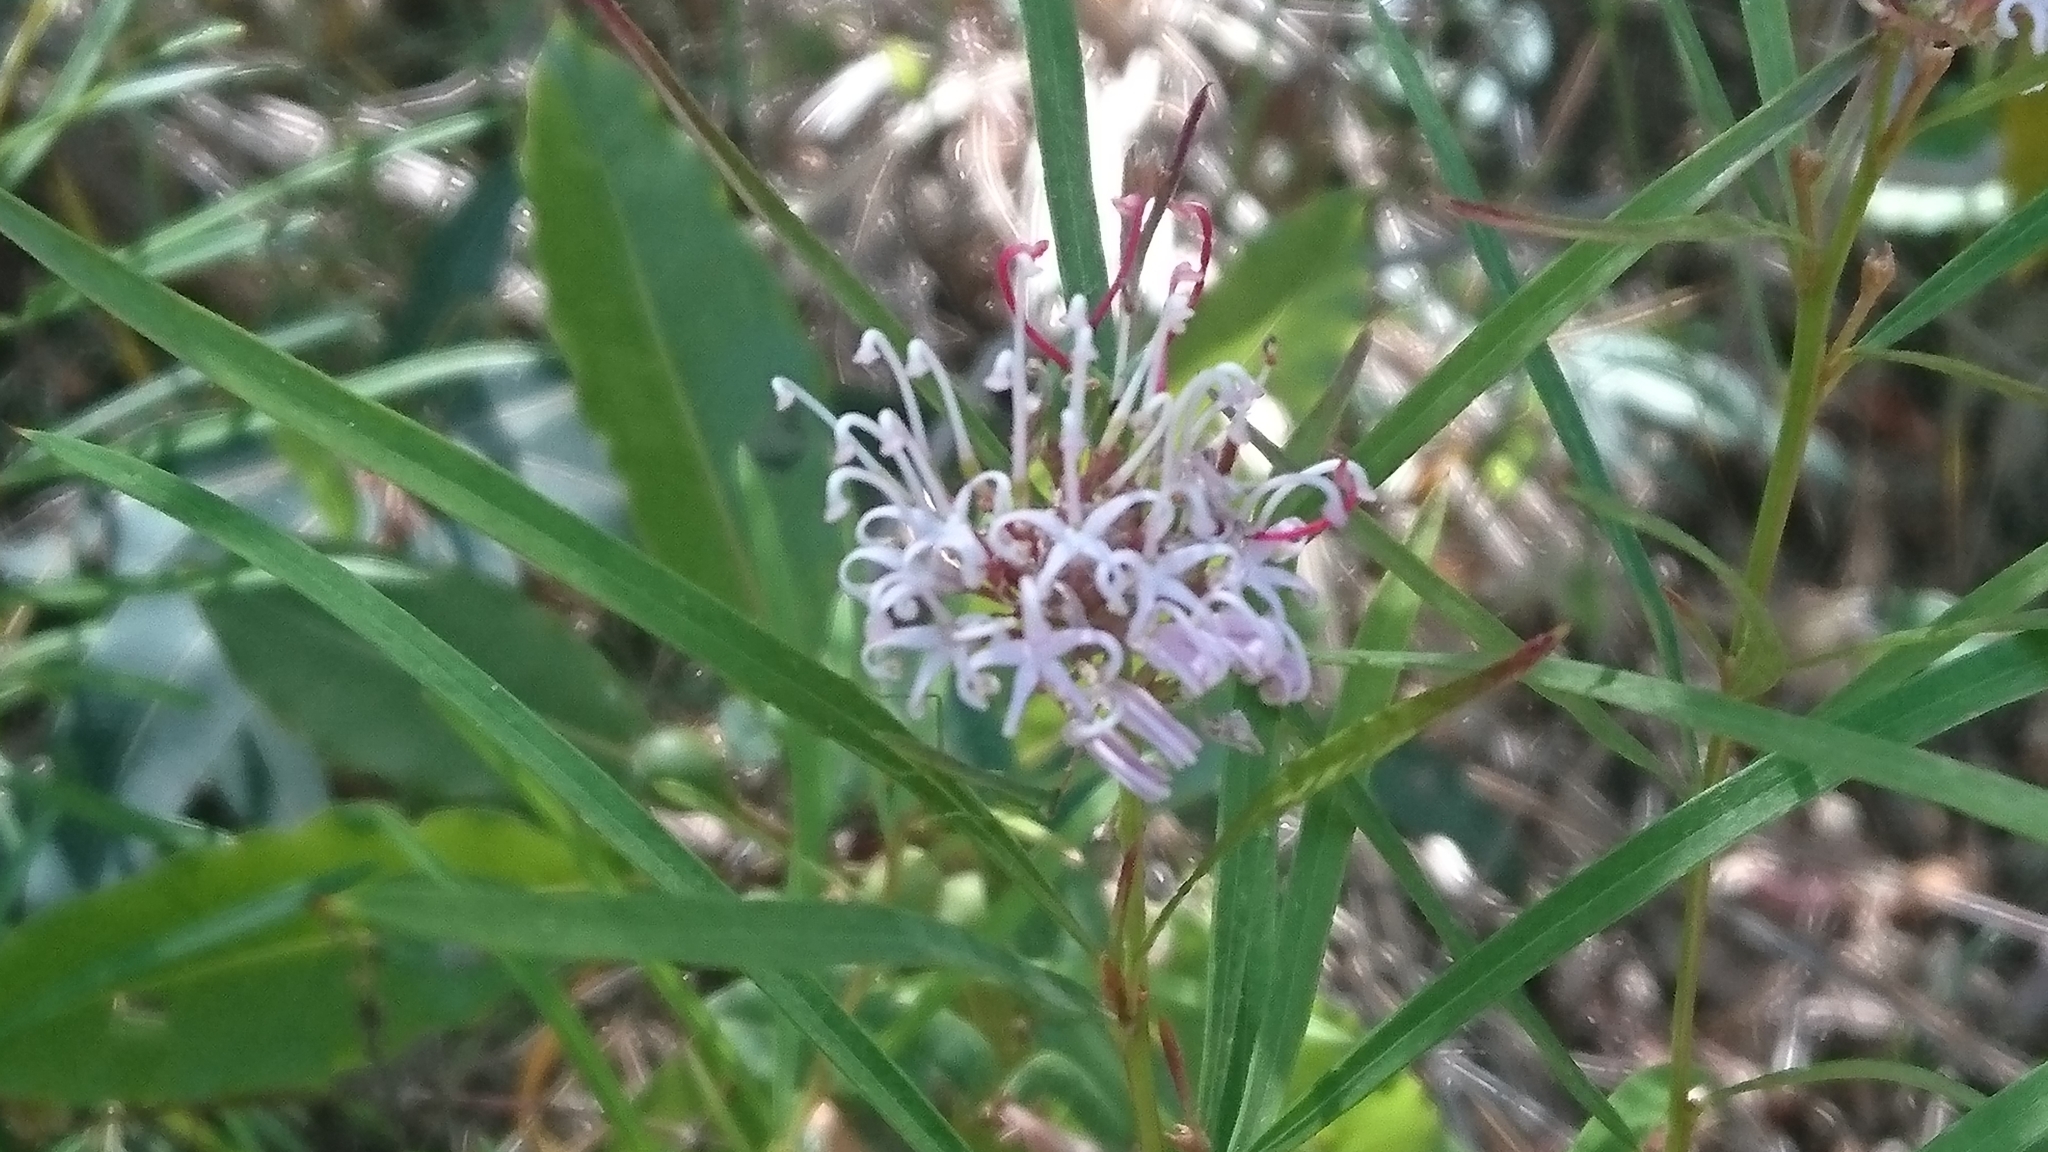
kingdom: Plantae
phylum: Tracheophyta
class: Magnoliopsida
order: Proteales
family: Proteaceae
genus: Grevillea
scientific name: Grevillea linearifolia
